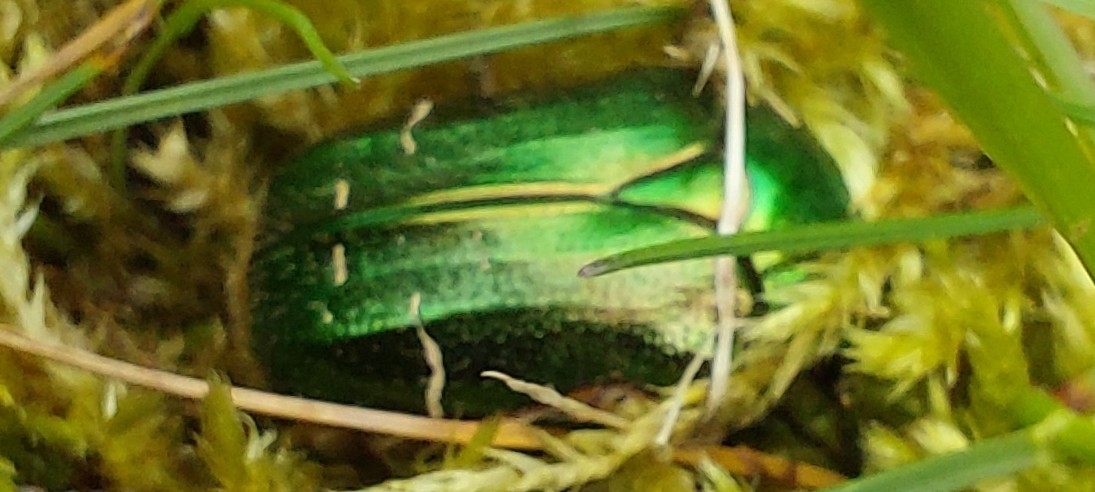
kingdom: Animalia
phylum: Arthropoda
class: Insecta
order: Coleoptera
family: Scarabaeidae
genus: Cetonia
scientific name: Cetonia aurata
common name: Rose chafer
